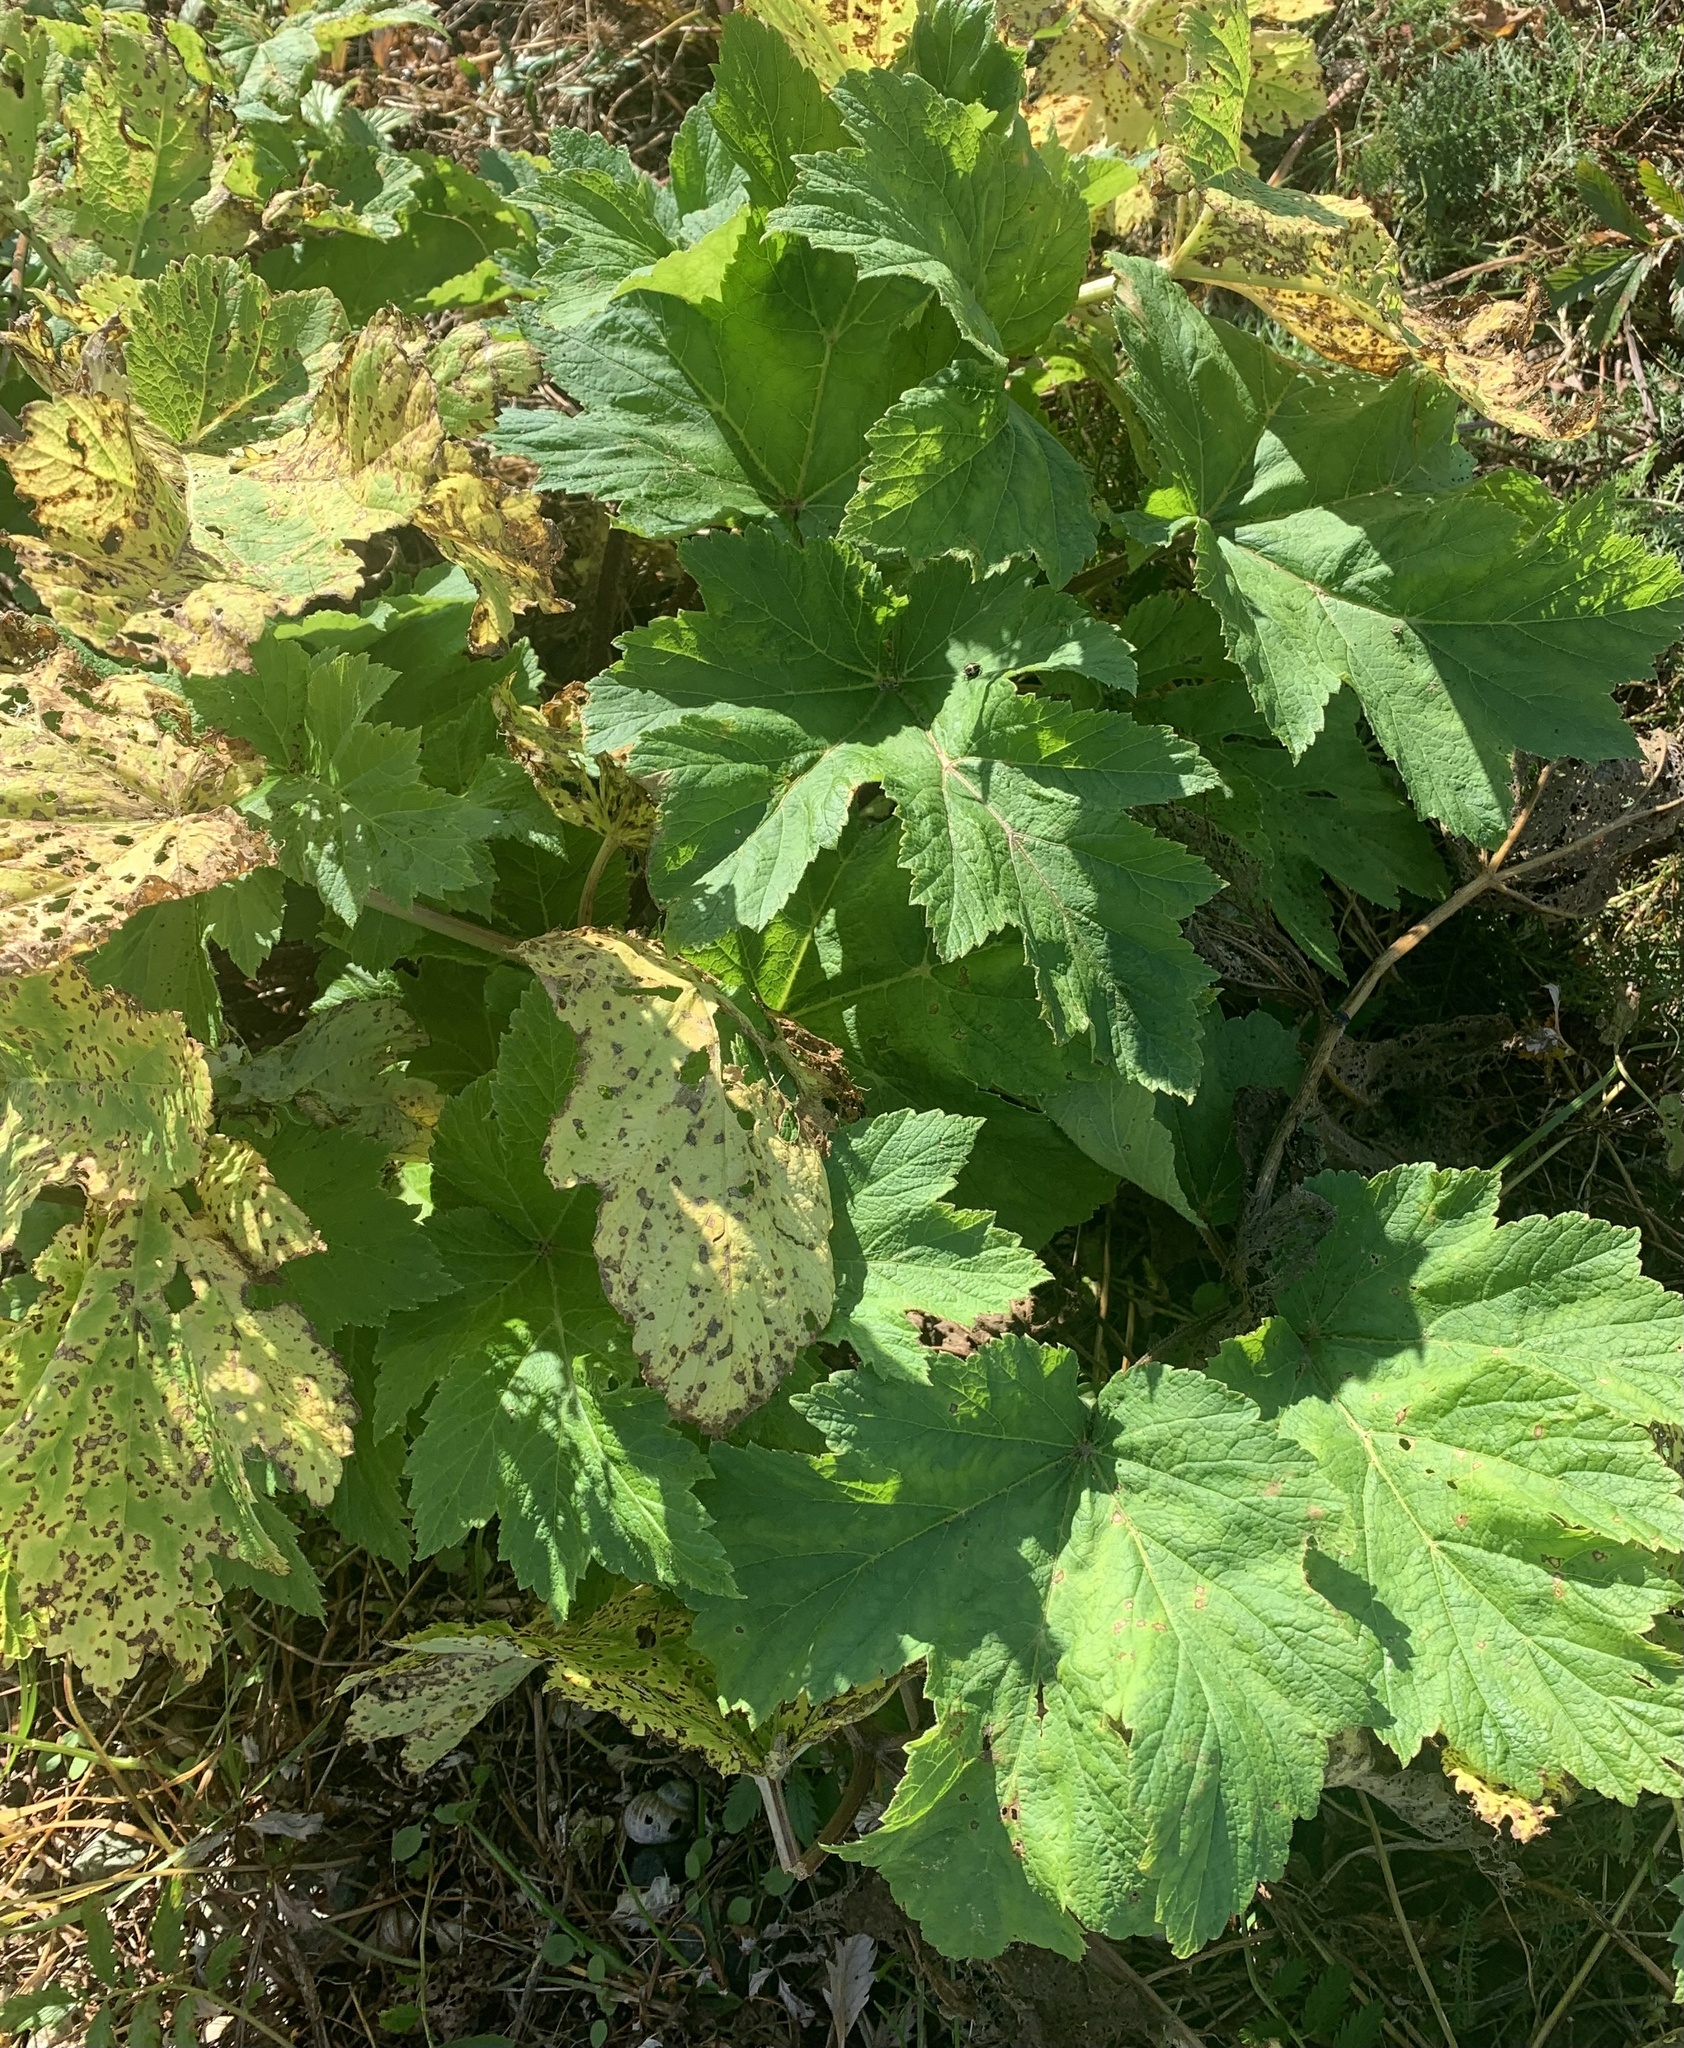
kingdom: Plantae
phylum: Tracheophyta
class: Magnoliopsida
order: Apiales
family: Apiaceae
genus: Heracleum
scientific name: Heracleum maximum
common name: American cow parsnip
